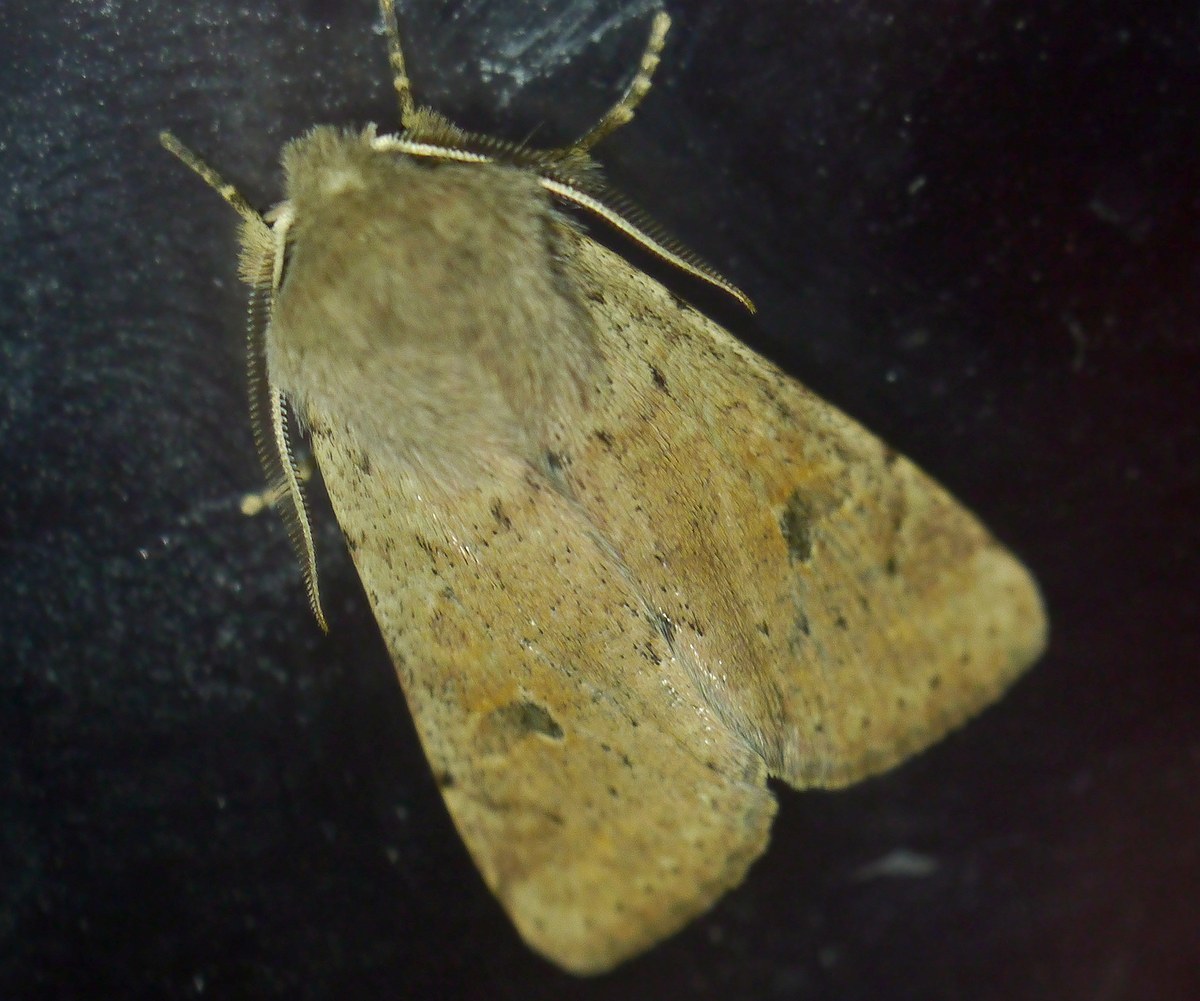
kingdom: Animalia
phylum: Arthropoda
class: Insecta
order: Lepidoptera
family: Noctuidae
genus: Orthosia
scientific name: Orthosia cruda
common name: Small quaker
